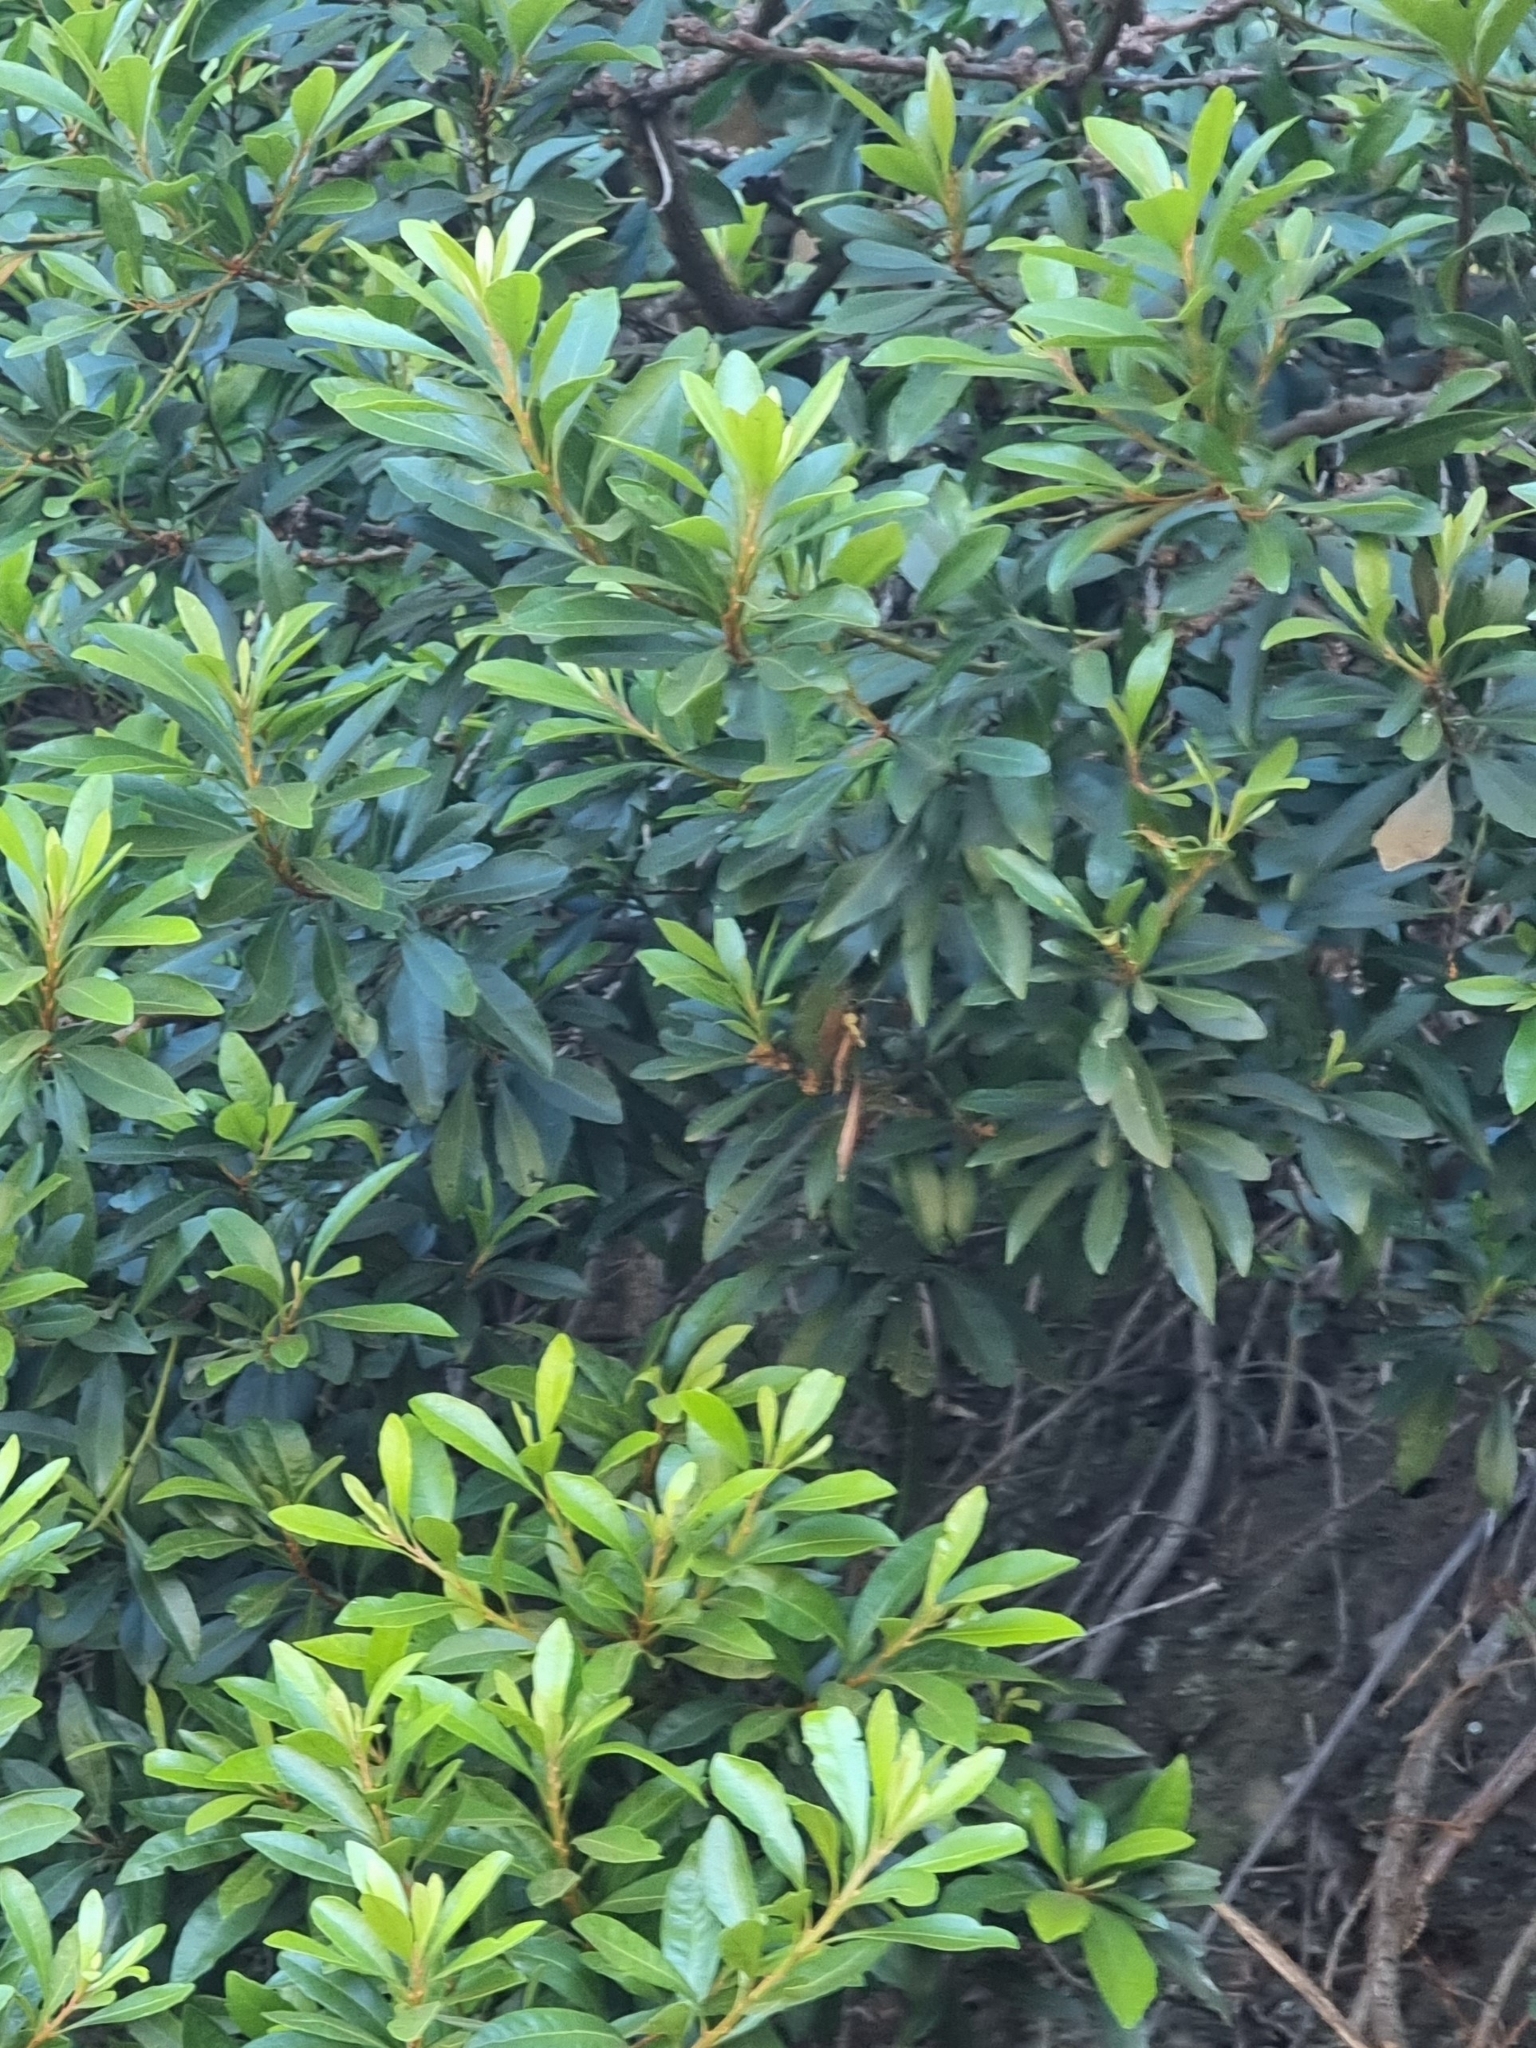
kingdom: Plantae
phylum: Tracheophyta
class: Magnoliopsida
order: Fagales
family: Myricaceae
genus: Morella
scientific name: Morella faya
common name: Firetree
